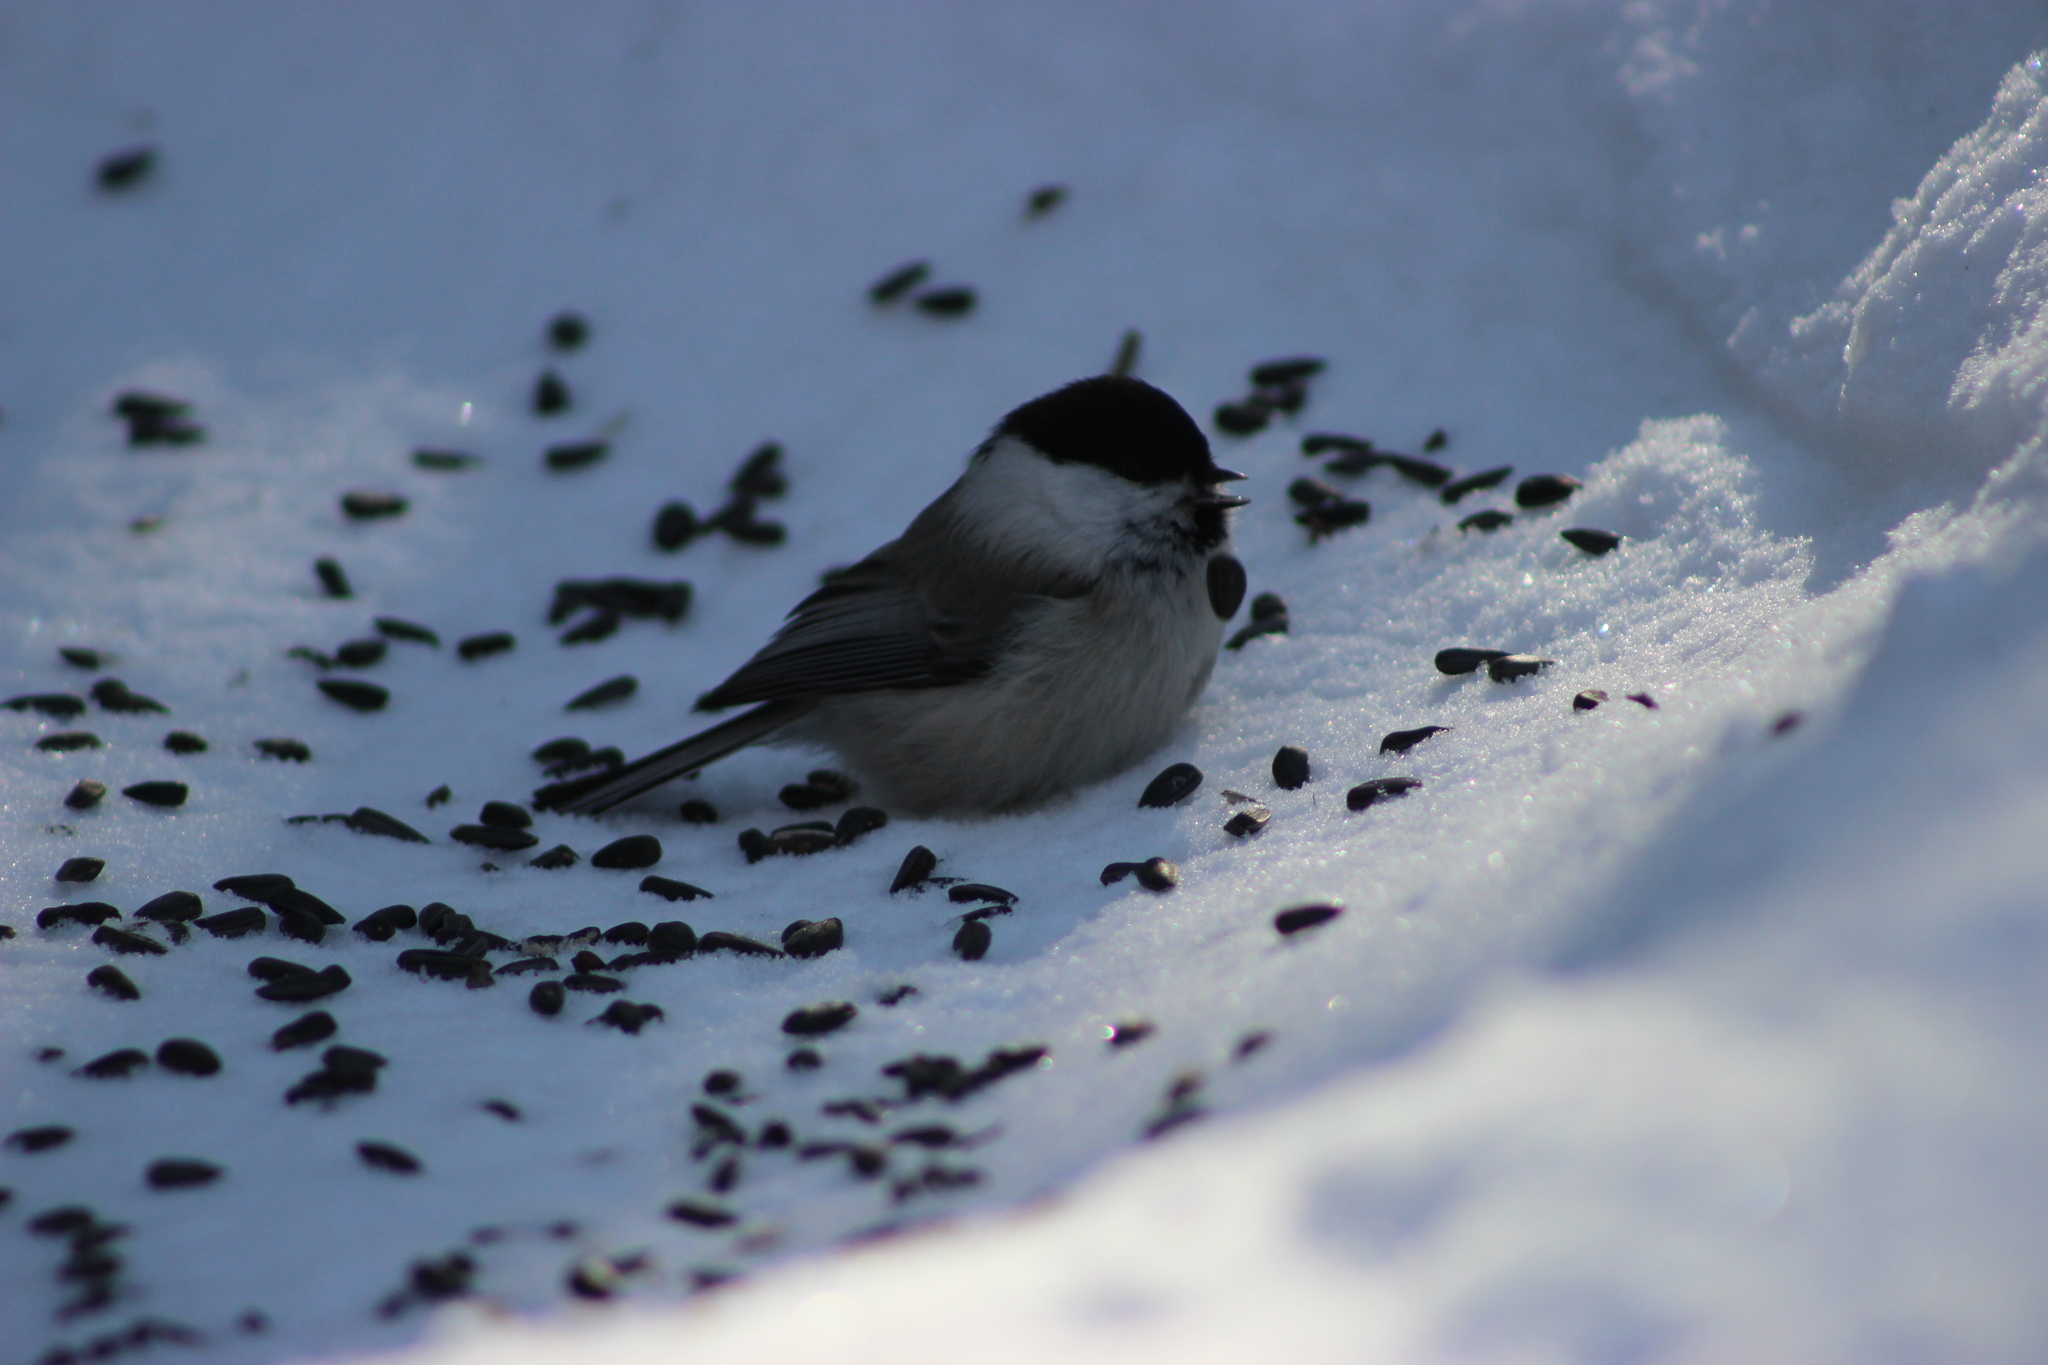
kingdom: Animalia
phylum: Chordata
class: Aves
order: Passeriformes
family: Paridae
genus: Poecile
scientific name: Poecile montanus
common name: Willow tit
